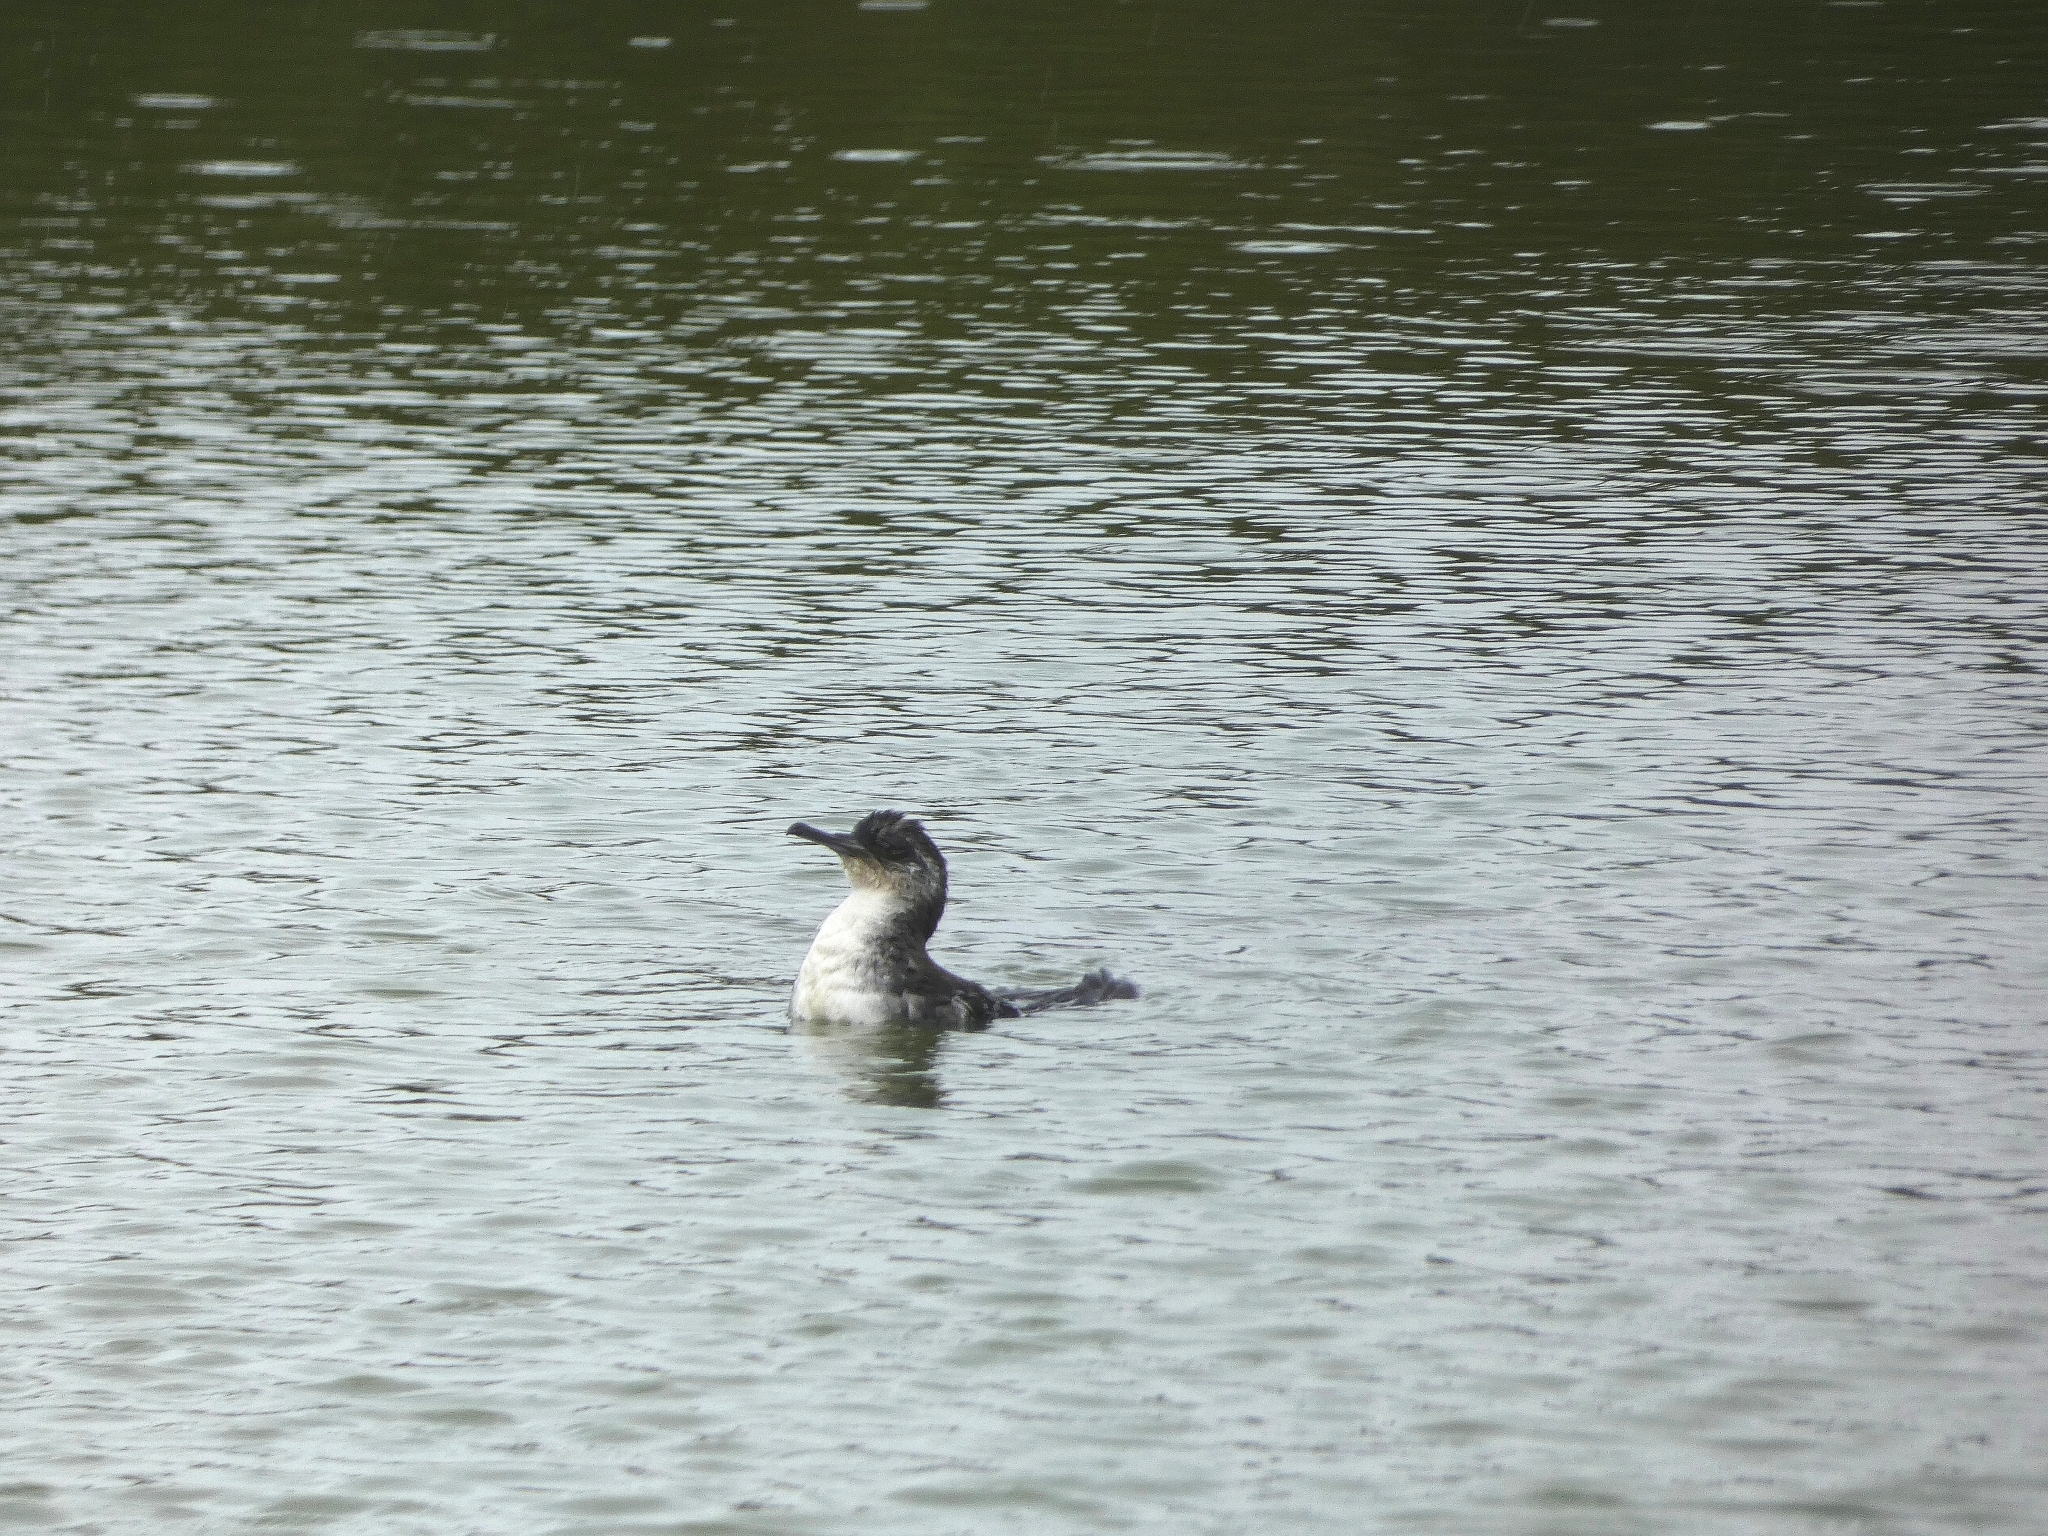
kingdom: Animalia
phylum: Chordata
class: Aves
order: Procellariiformes
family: Procellariidae
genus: Puffinus
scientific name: Puffinus puffinus
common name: Manx shearwater
